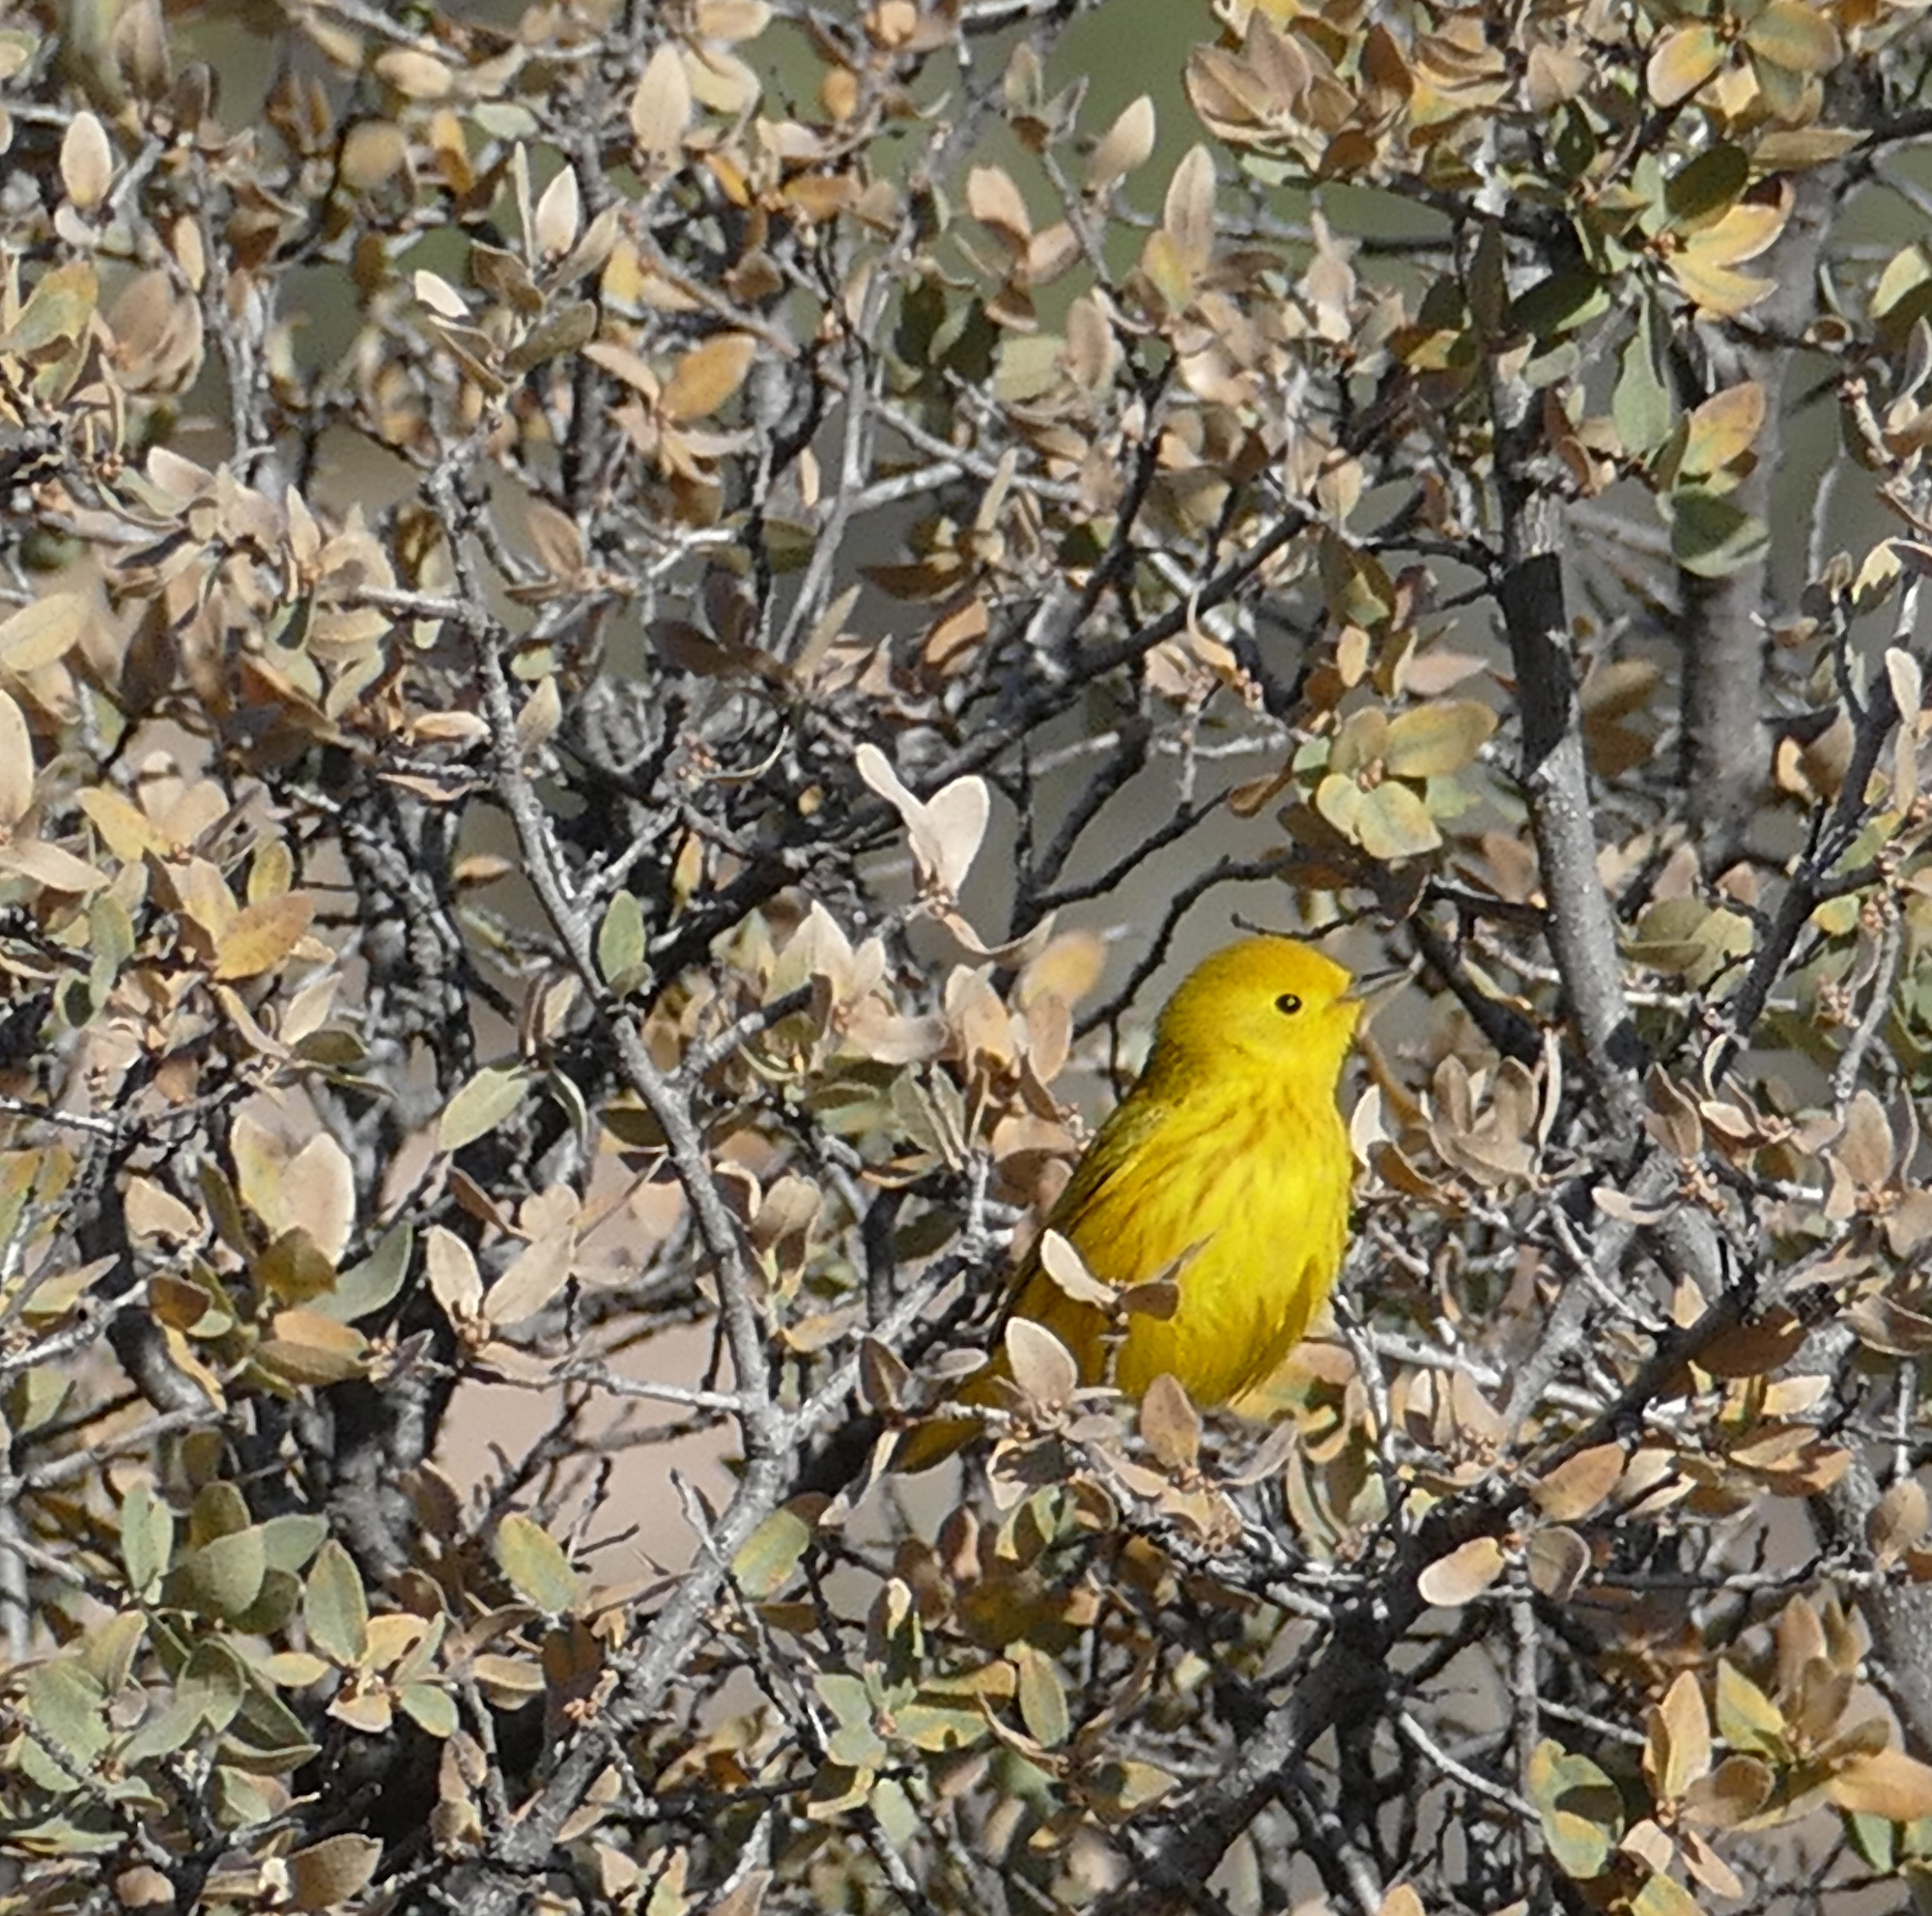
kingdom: Animalia
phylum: Chordata
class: Aves
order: Passeriformes
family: Parulidae
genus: Setophaga
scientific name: Setophaga petechia
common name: Yellow warbler
